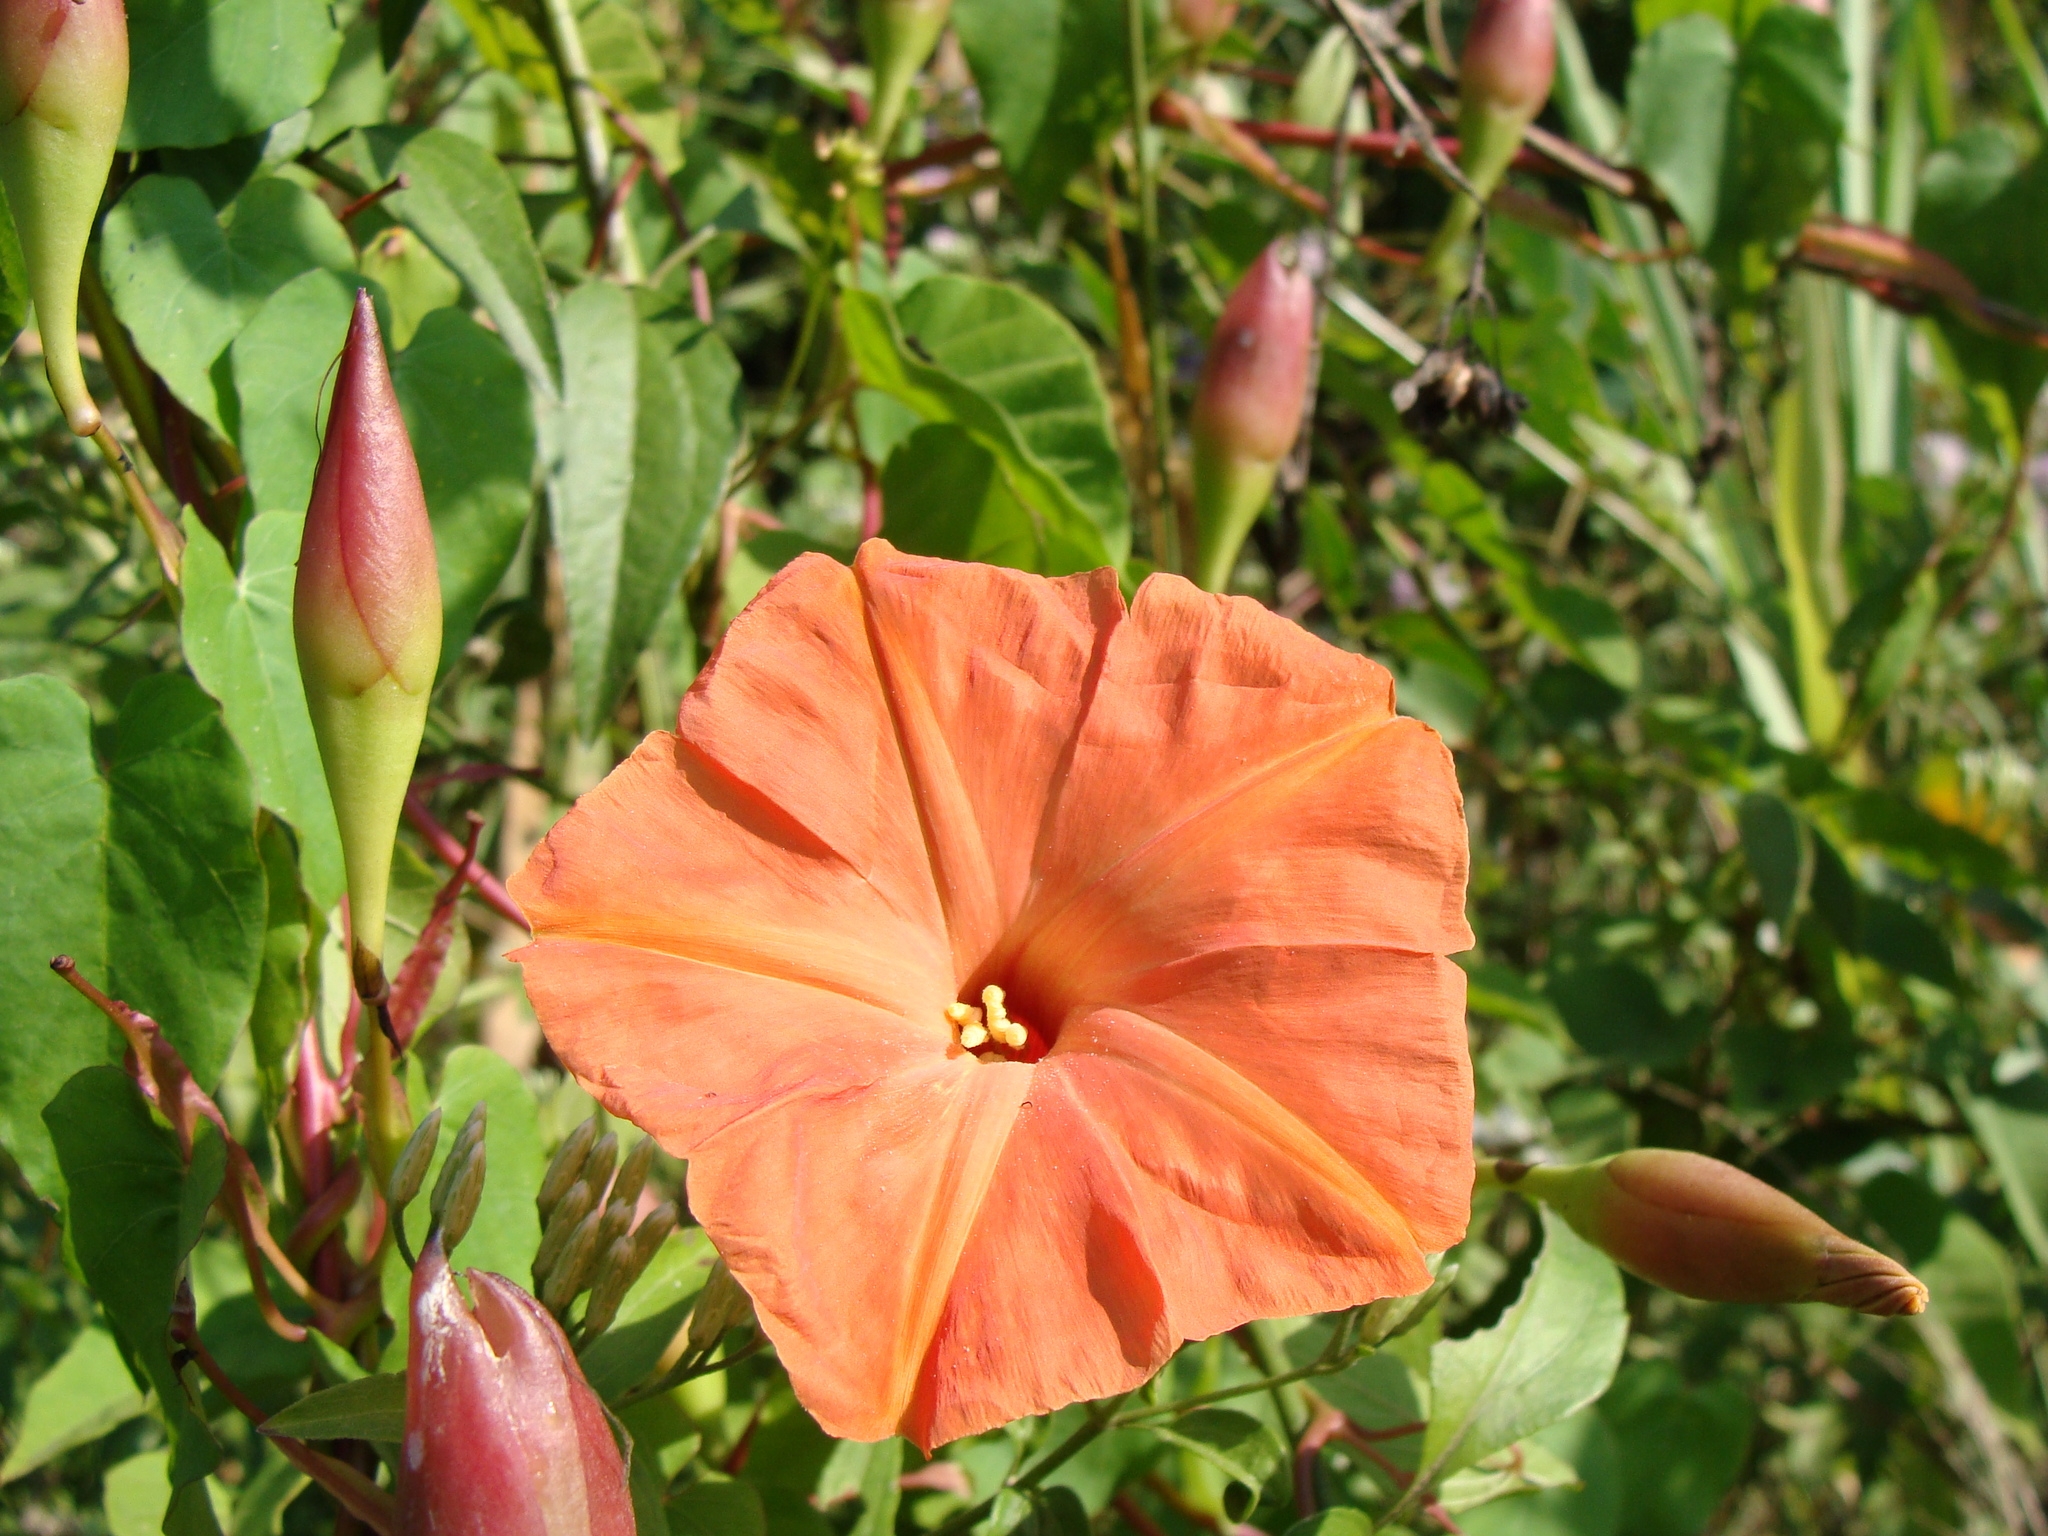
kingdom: Plantae
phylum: Tracheophyta
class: Magnoliopsida
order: Solanales
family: Convolvulaceae
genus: Operculina
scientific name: Operculina pteripes
